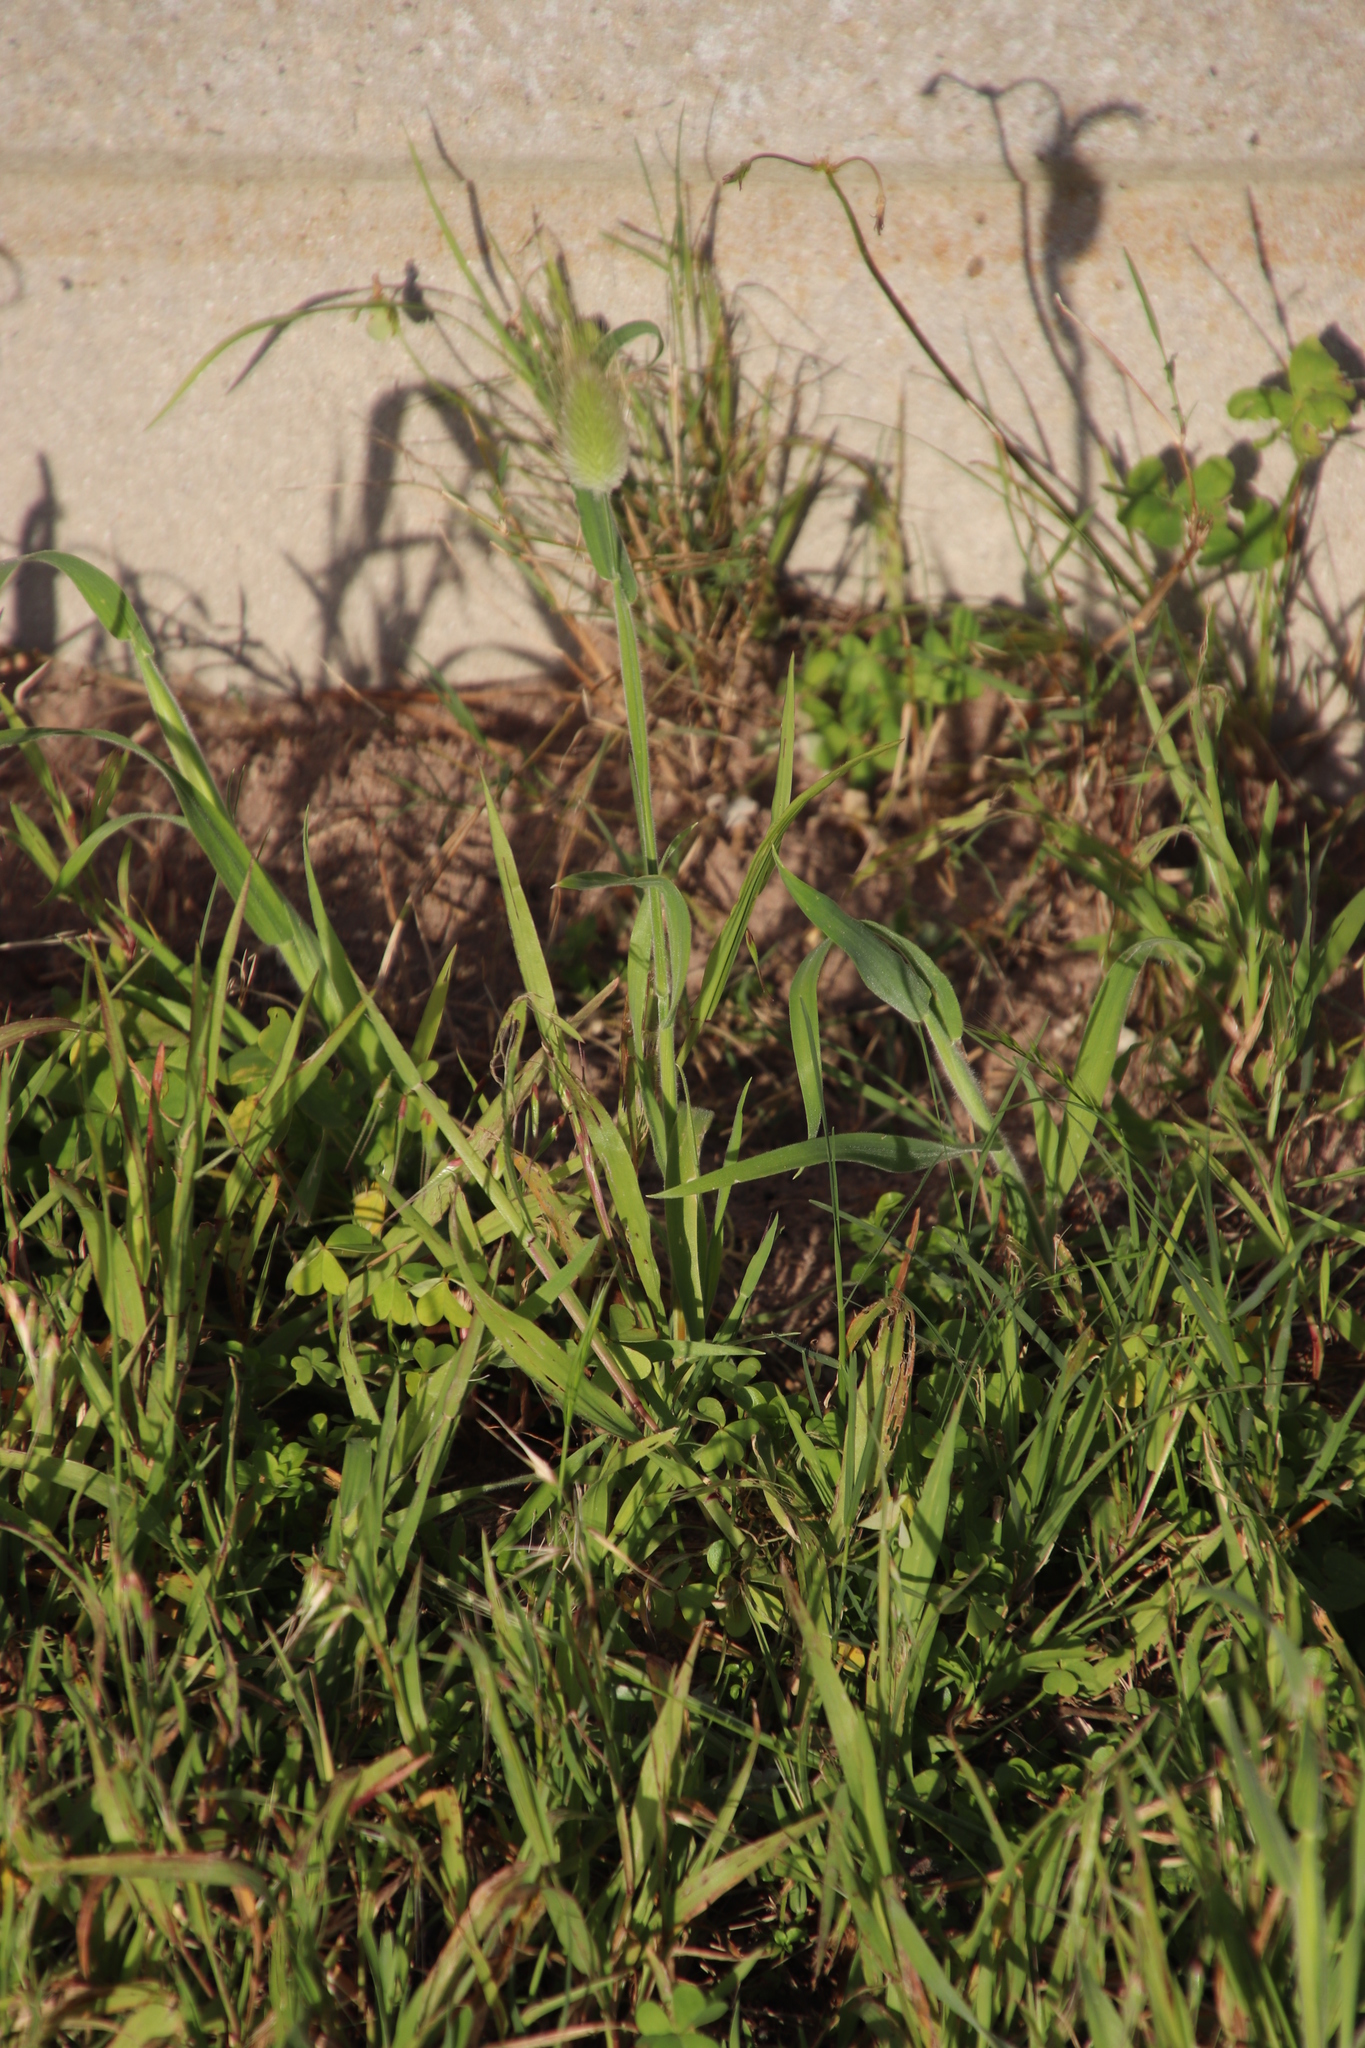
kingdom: Plantae
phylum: Tracheophyta
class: Liliopsida
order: Poales
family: Poaceae
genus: Lagurus
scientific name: Lagurus ovatus
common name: Hare's-tail
